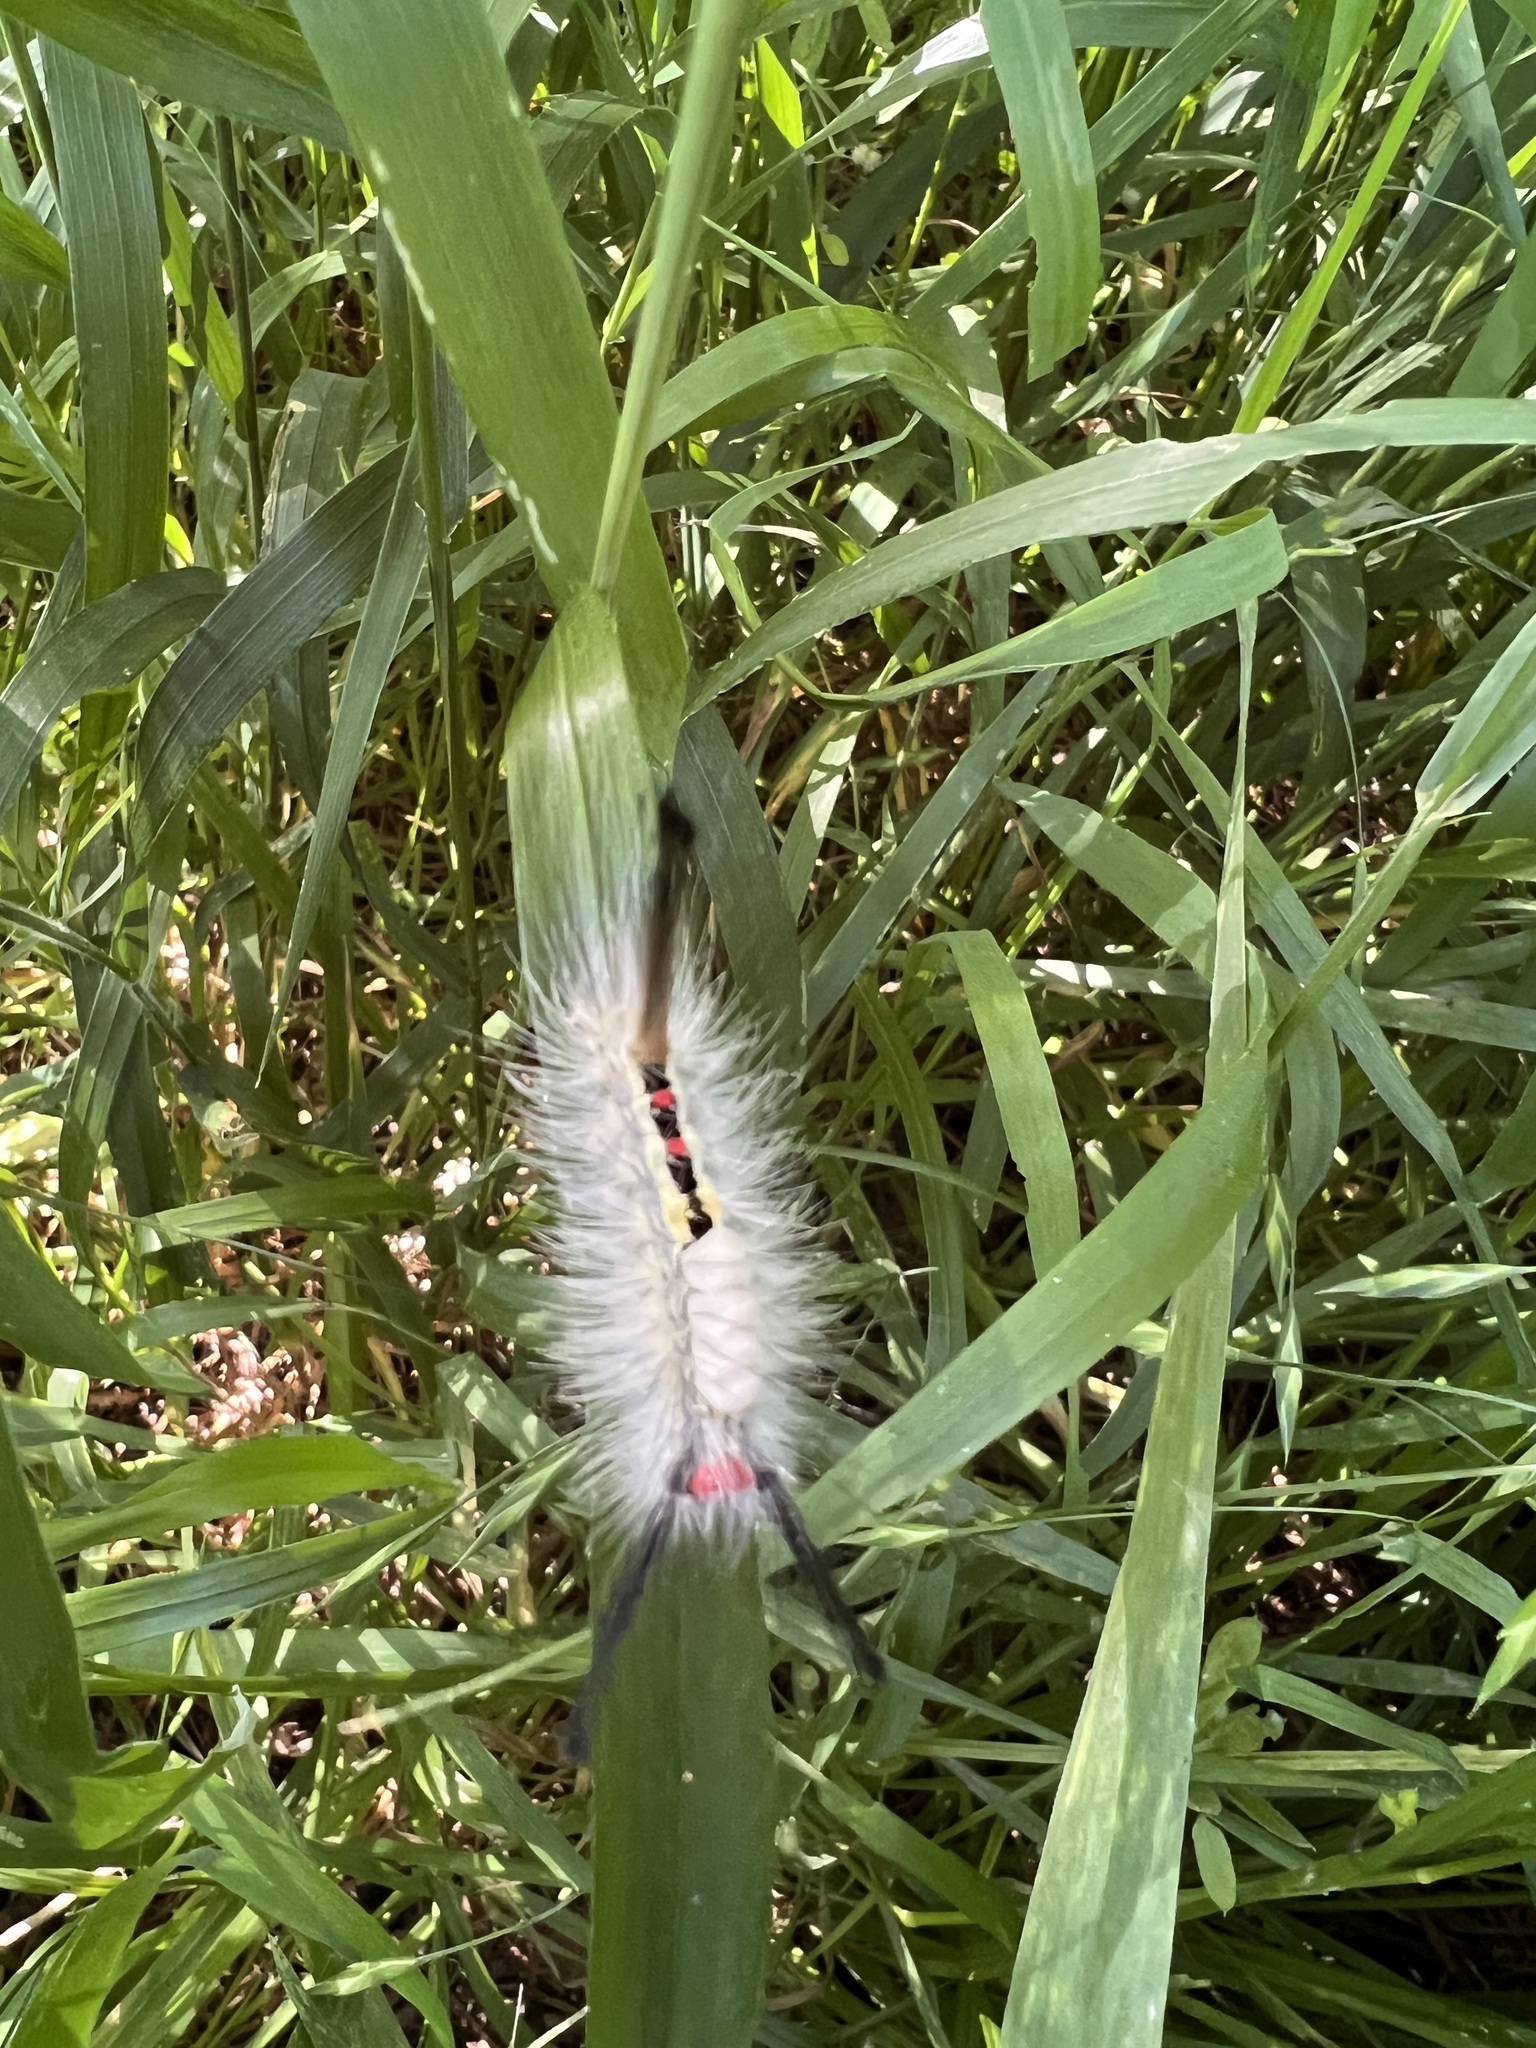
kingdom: Animalia
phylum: Arthropoda
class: Insecta
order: Lepidoptera
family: Erebidae
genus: Orgyia
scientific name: Orgyia leucostigma
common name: White-marked tussock moth
